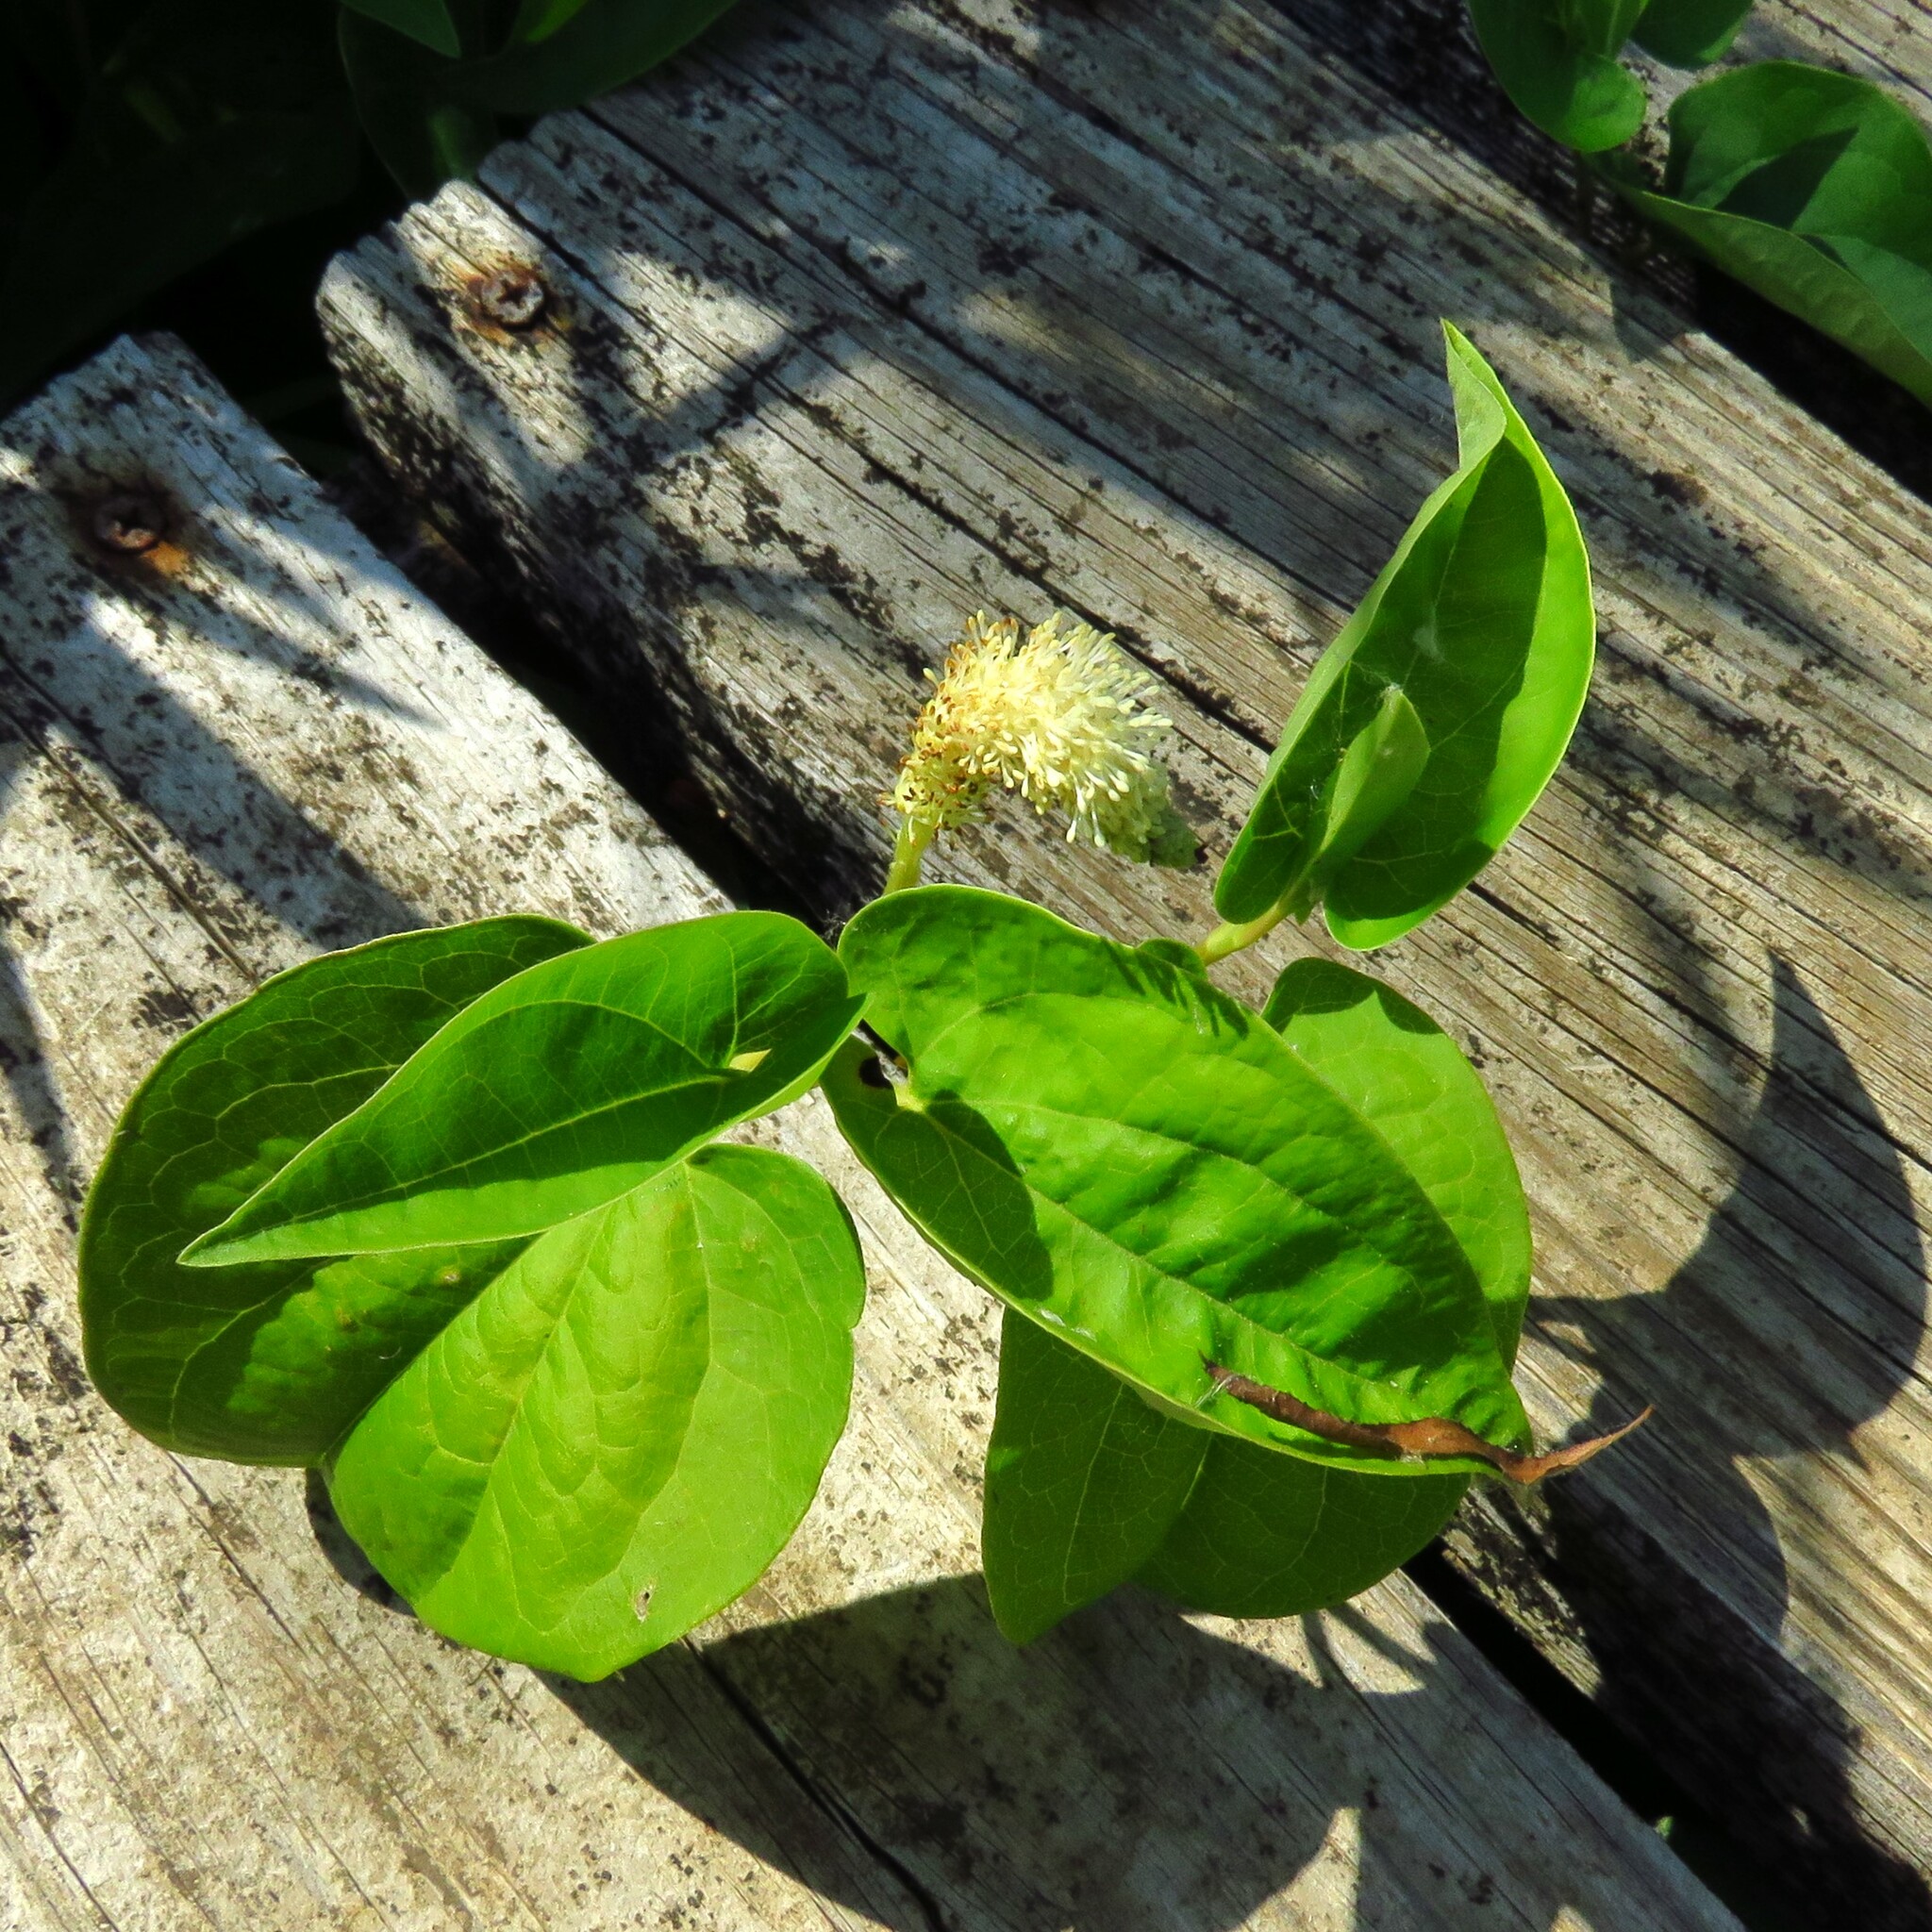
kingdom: Plantae
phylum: Tracheophyta
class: Magnoliopsida
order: Piperales
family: Saururaceae
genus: Saururus
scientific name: Saururus cernuus
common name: Lizard's-tail
